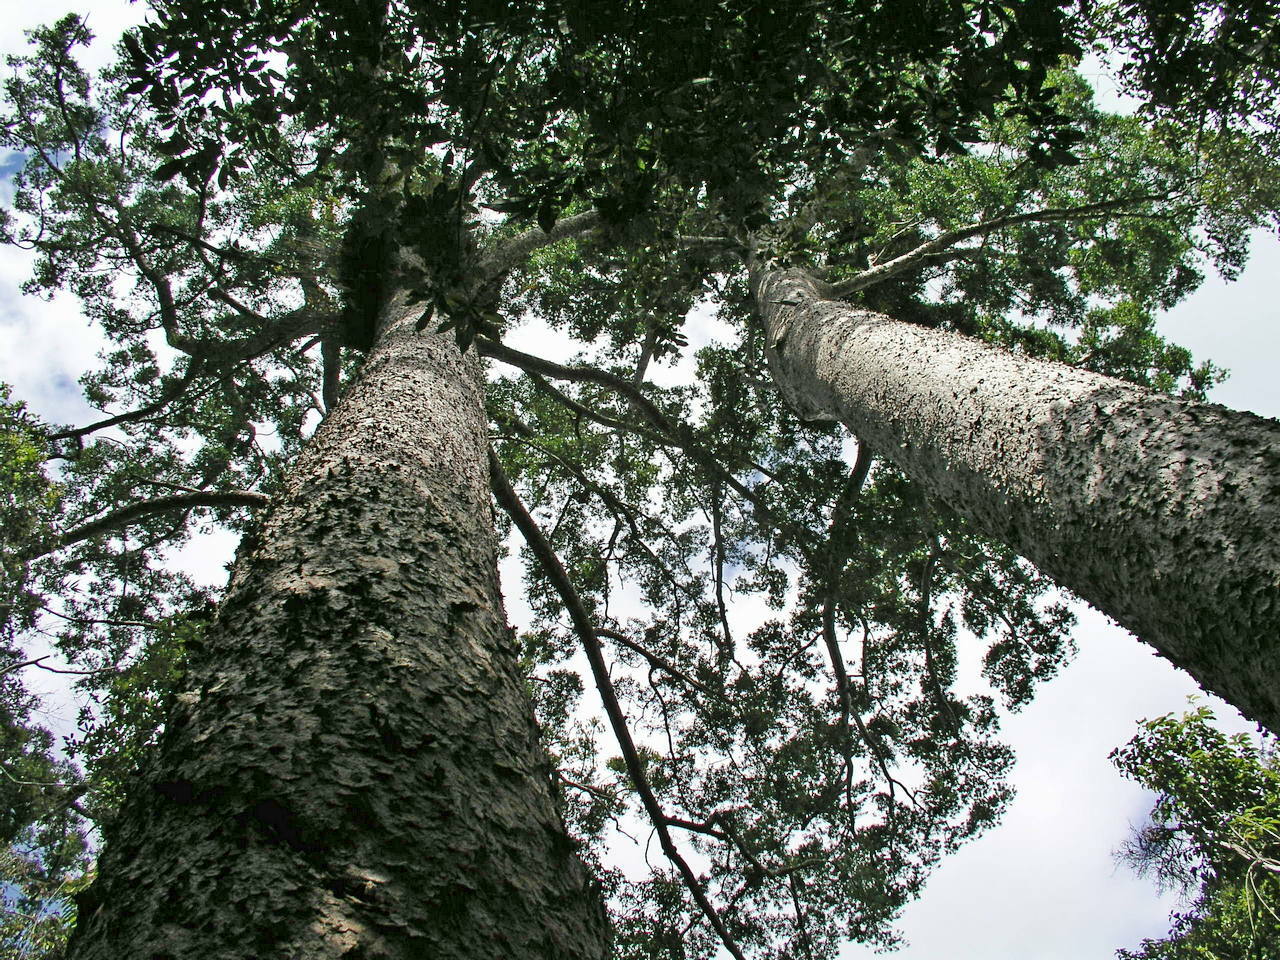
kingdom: Plantae
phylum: Tracheophyta
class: Pinopsida
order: Pinales
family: Araucariaceae
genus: Agathis
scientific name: Agathis microstachya
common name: Bull kauri
